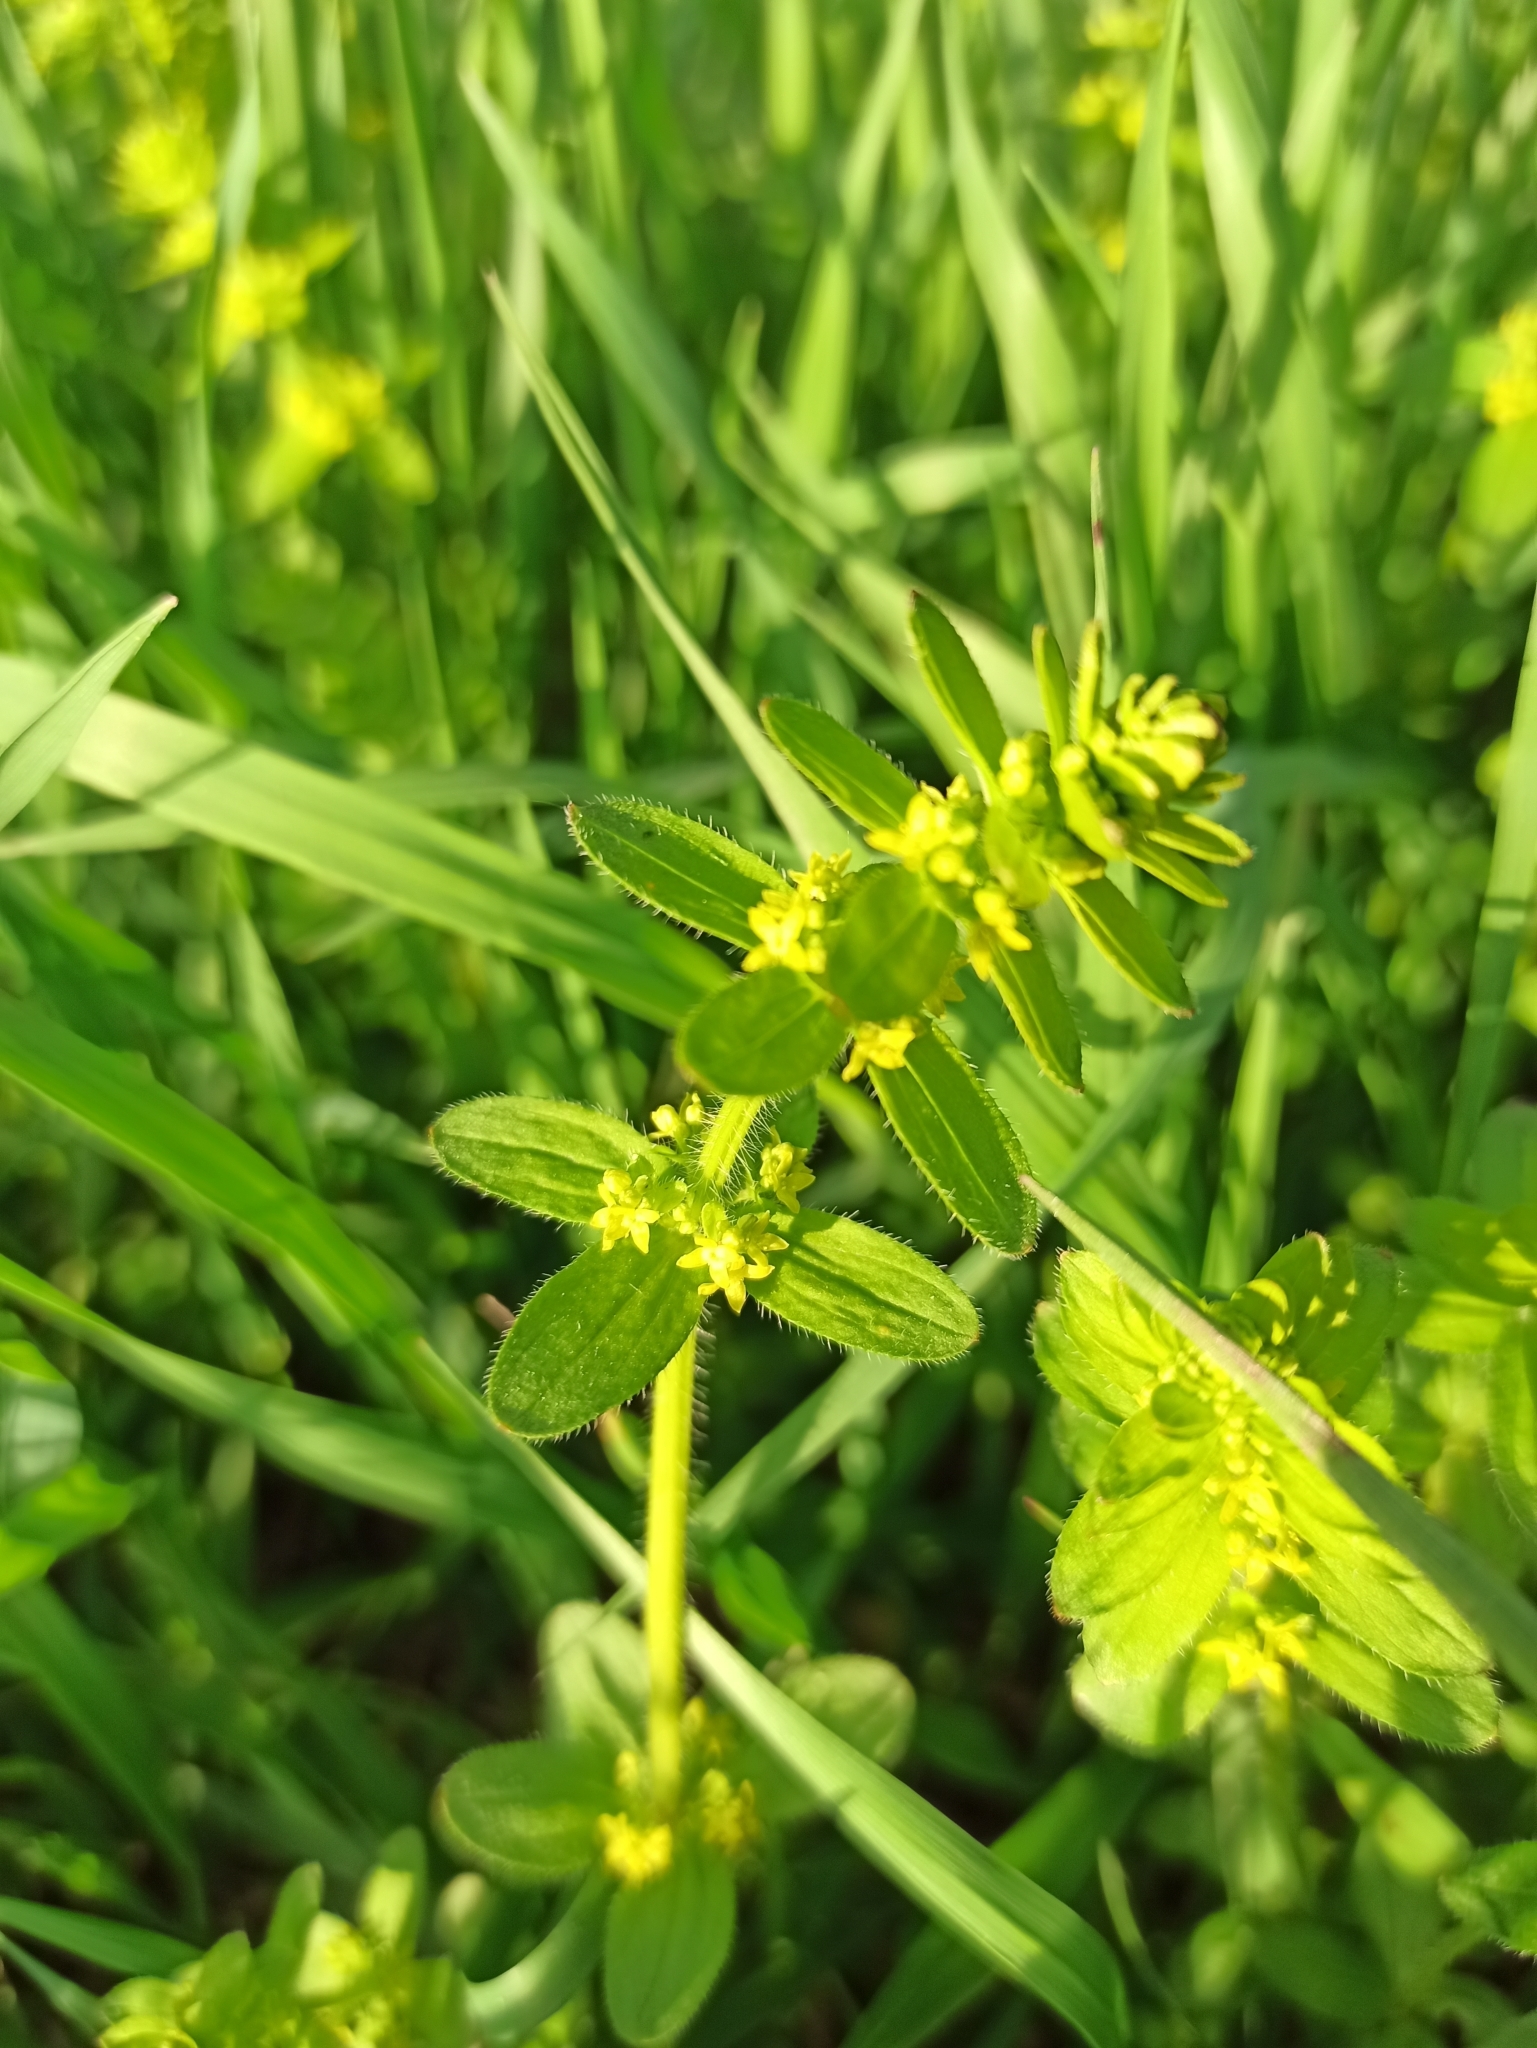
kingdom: Plantae
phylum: Tracheophyta
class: Magnoliopsida
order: Gentianales
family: Rubiaceae
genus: Cruciata
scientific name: Cruciata laevipes
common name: Crosswort
